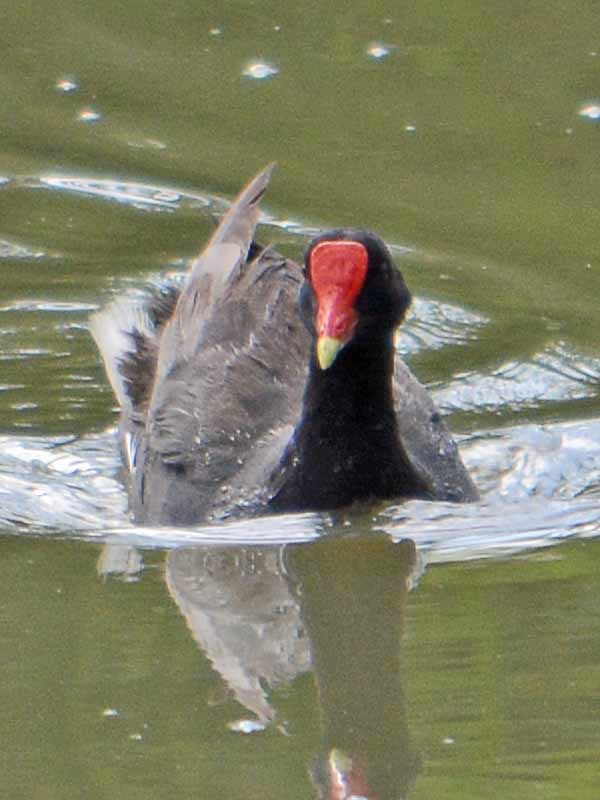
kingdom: Animalia
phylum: Chordata
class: Aves
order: Gruiformes
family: Rallidae
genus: Gallinula
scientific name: Gallinula chloropus
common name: Common moorhen
